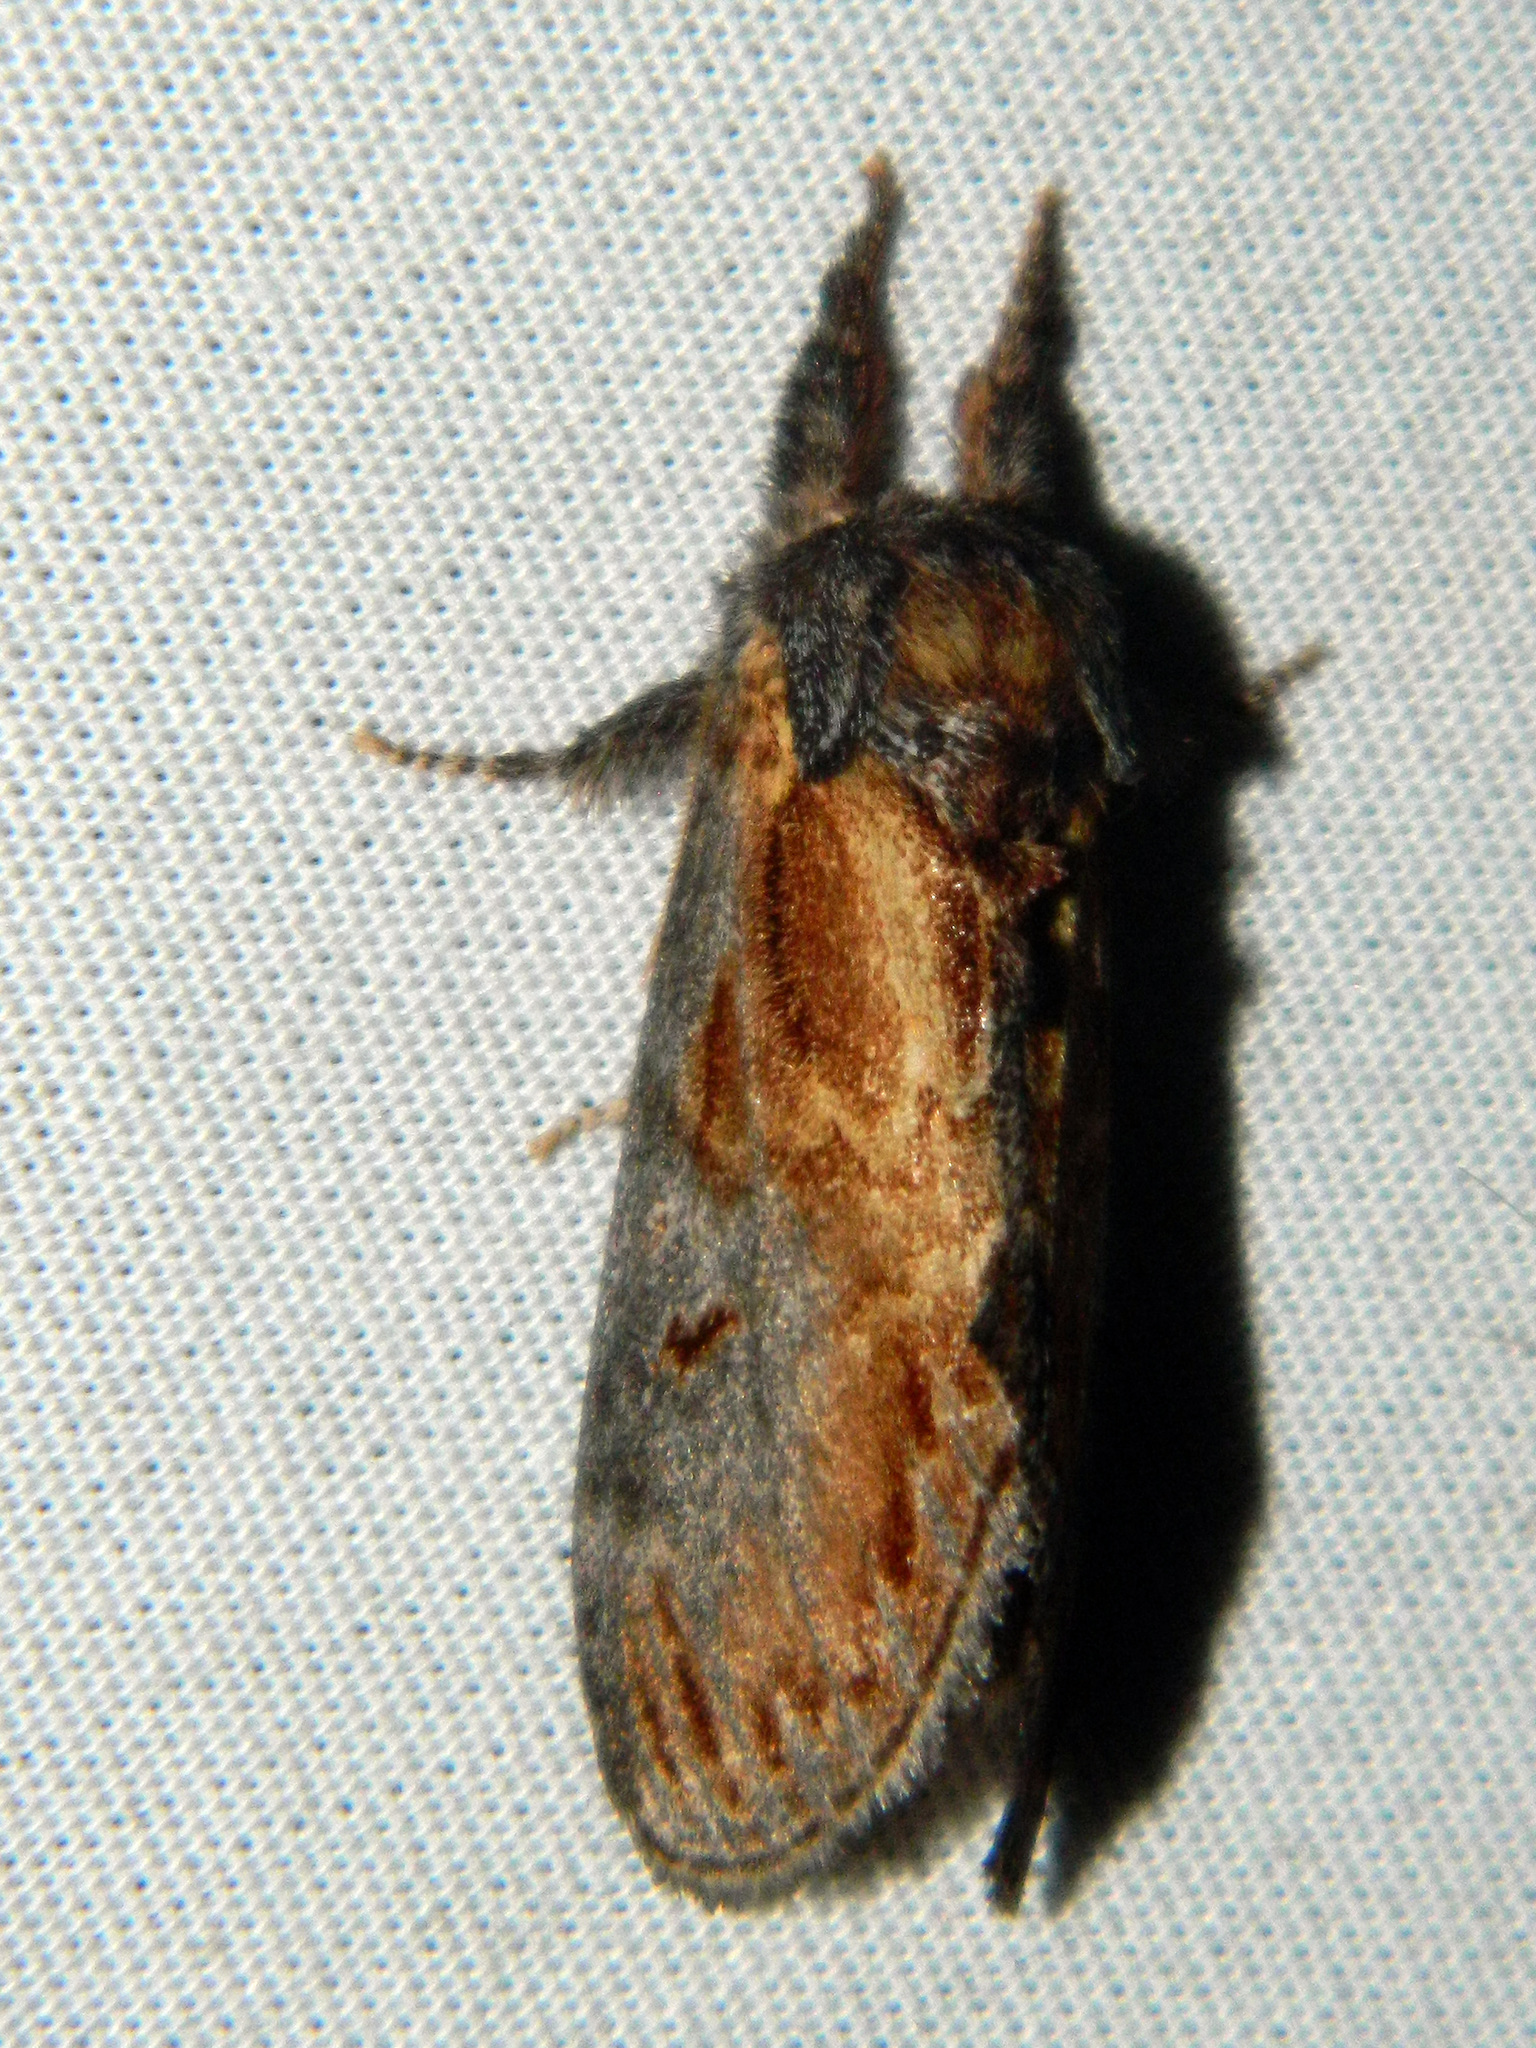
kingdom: Animalia
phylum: Arthropoda
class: Insecta
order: Lepidoptera
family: Notodontidae
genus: Notodonta
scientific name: Notodonta scitipennis
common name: Finned-willow prominent moth
